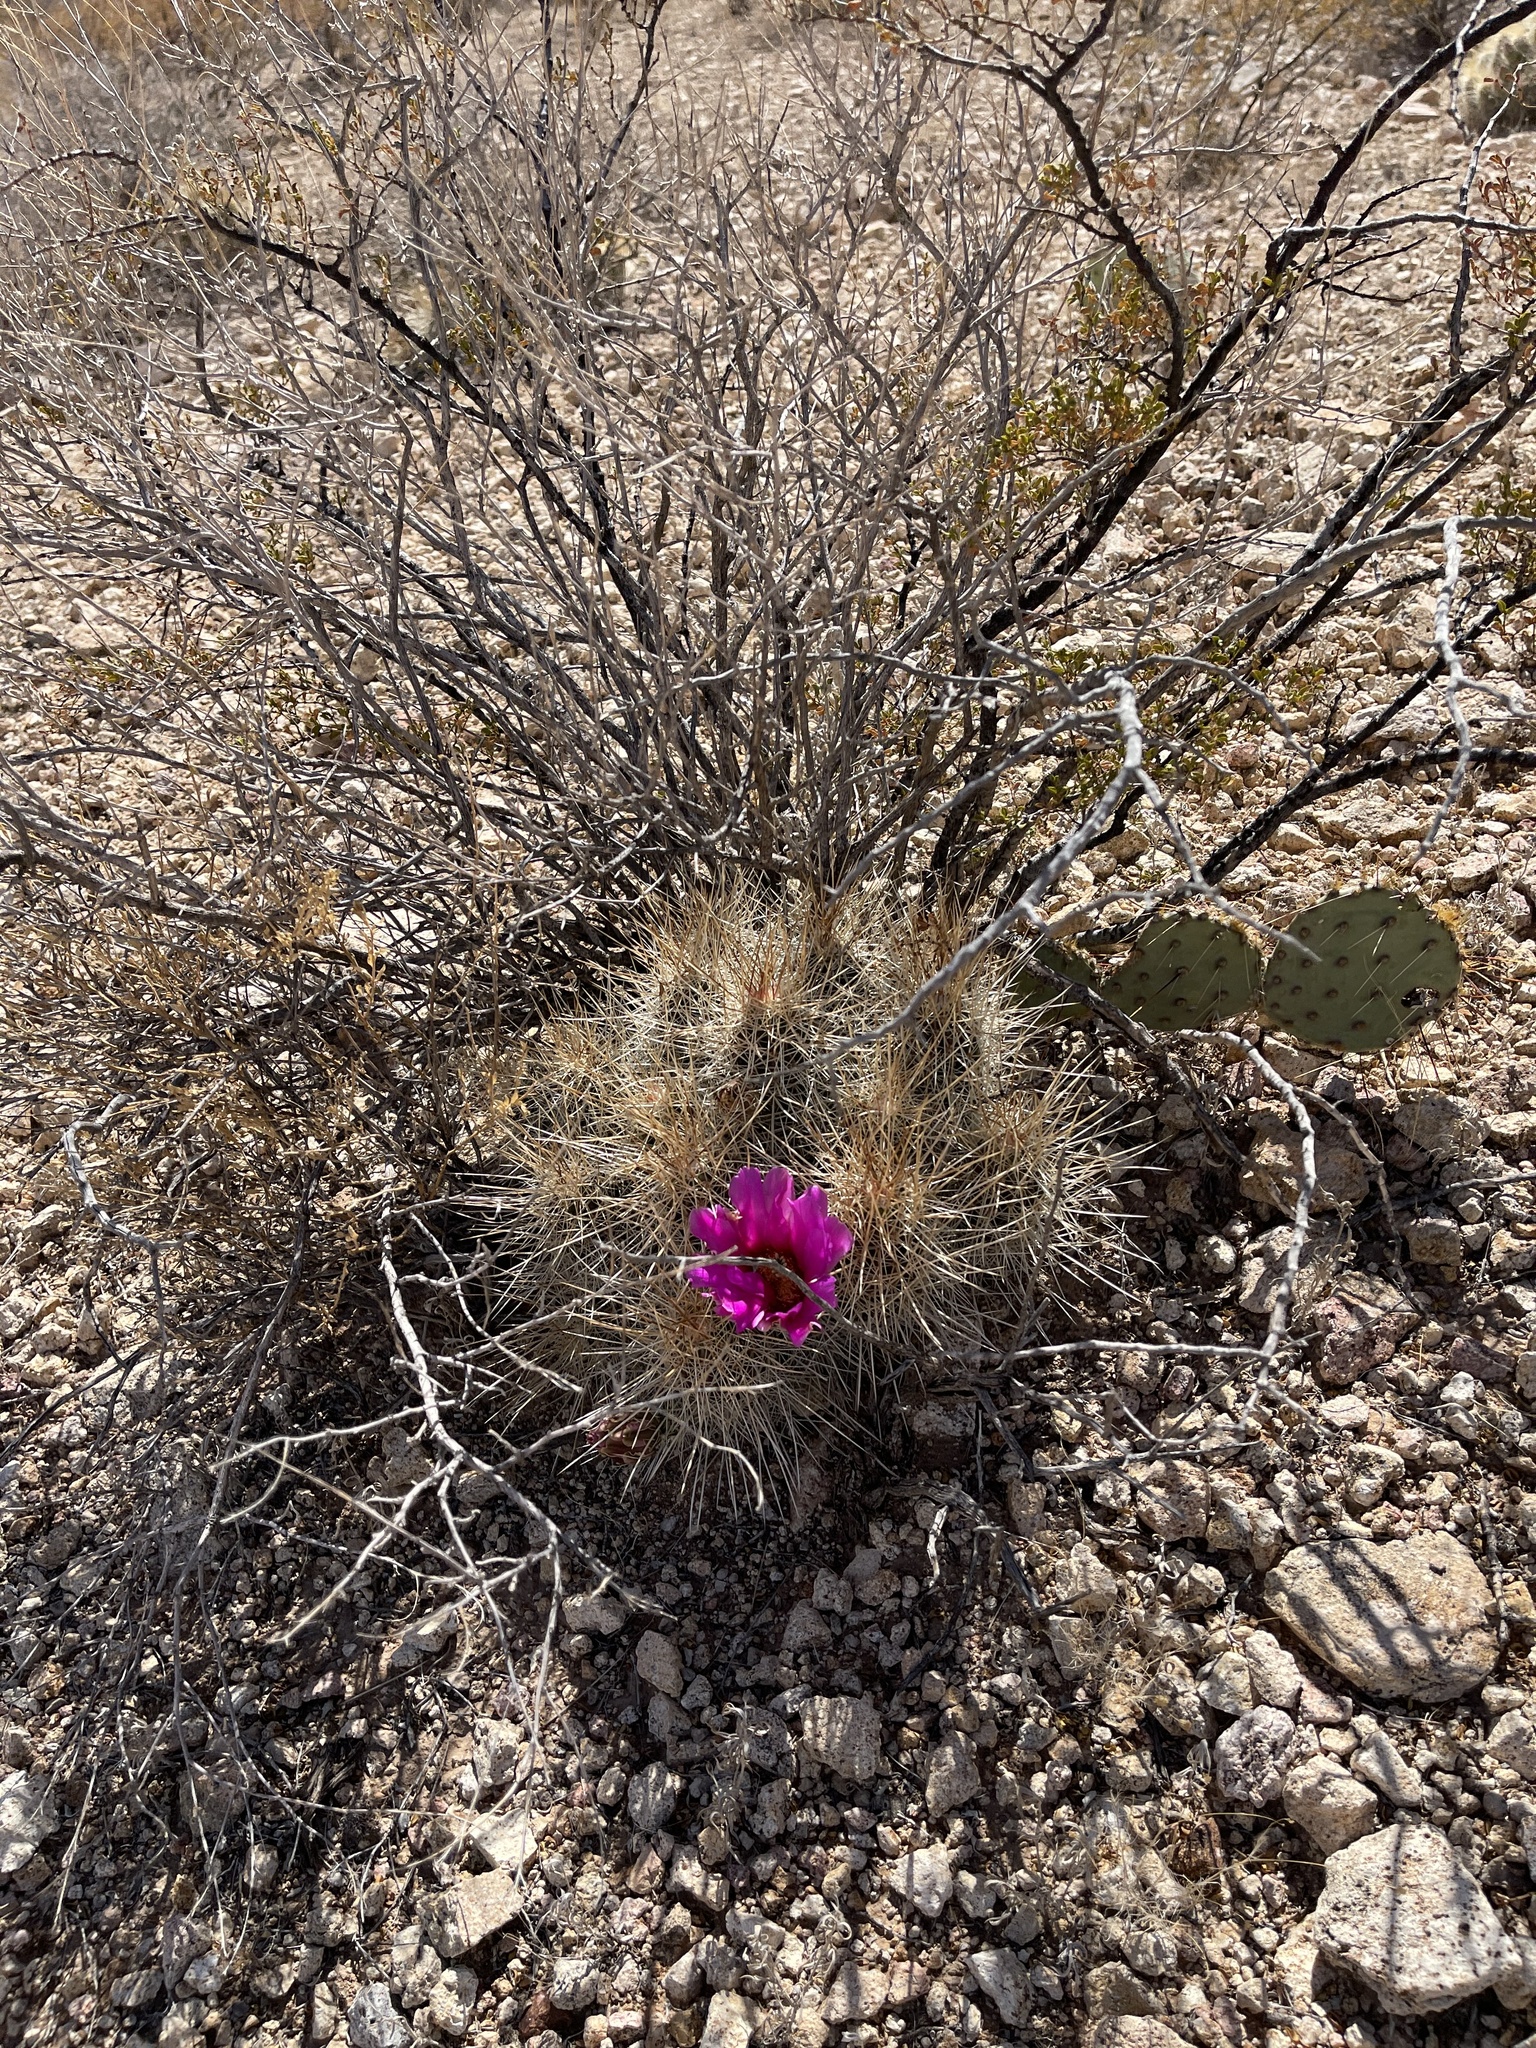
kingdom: Plantae
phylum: Tracheophyta
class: Magnoliopsida
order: Caryophyllales
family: Cactaceae
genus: Echinocereus
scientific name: Echinocereus stramineus
